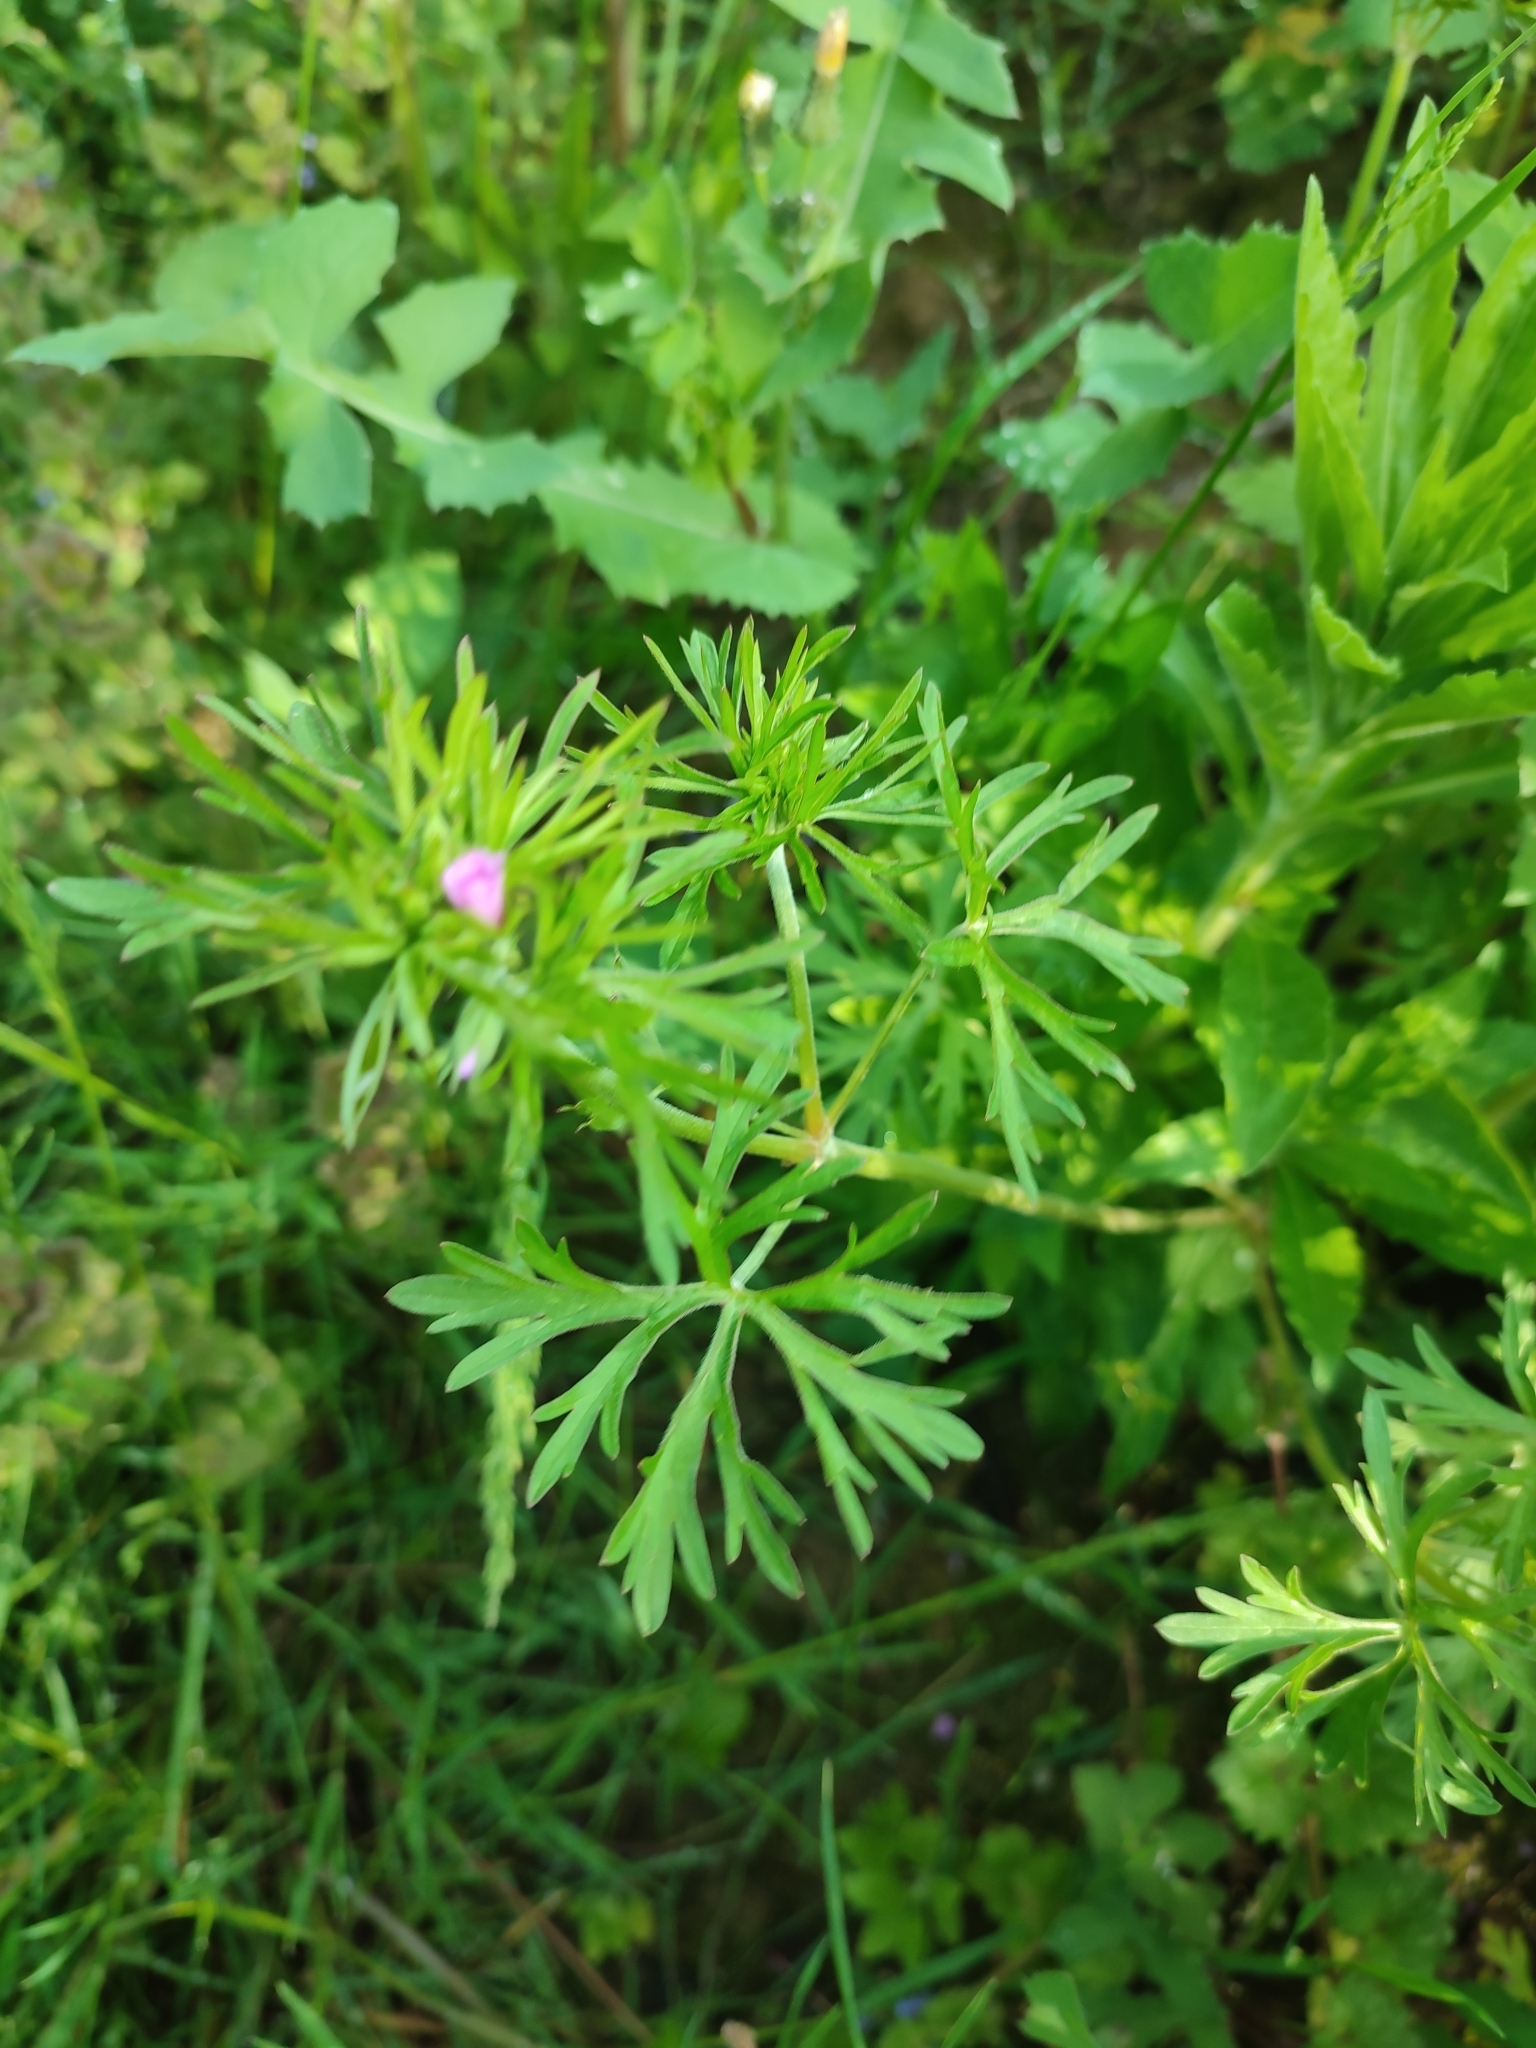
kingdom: Plantae
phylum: Tracheophyta
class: Magnoliopsida
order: Geraniales
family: Geraniaceae
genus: Geranium
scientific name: Geranium dissectum
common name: Cut-leaved crane's-bill
